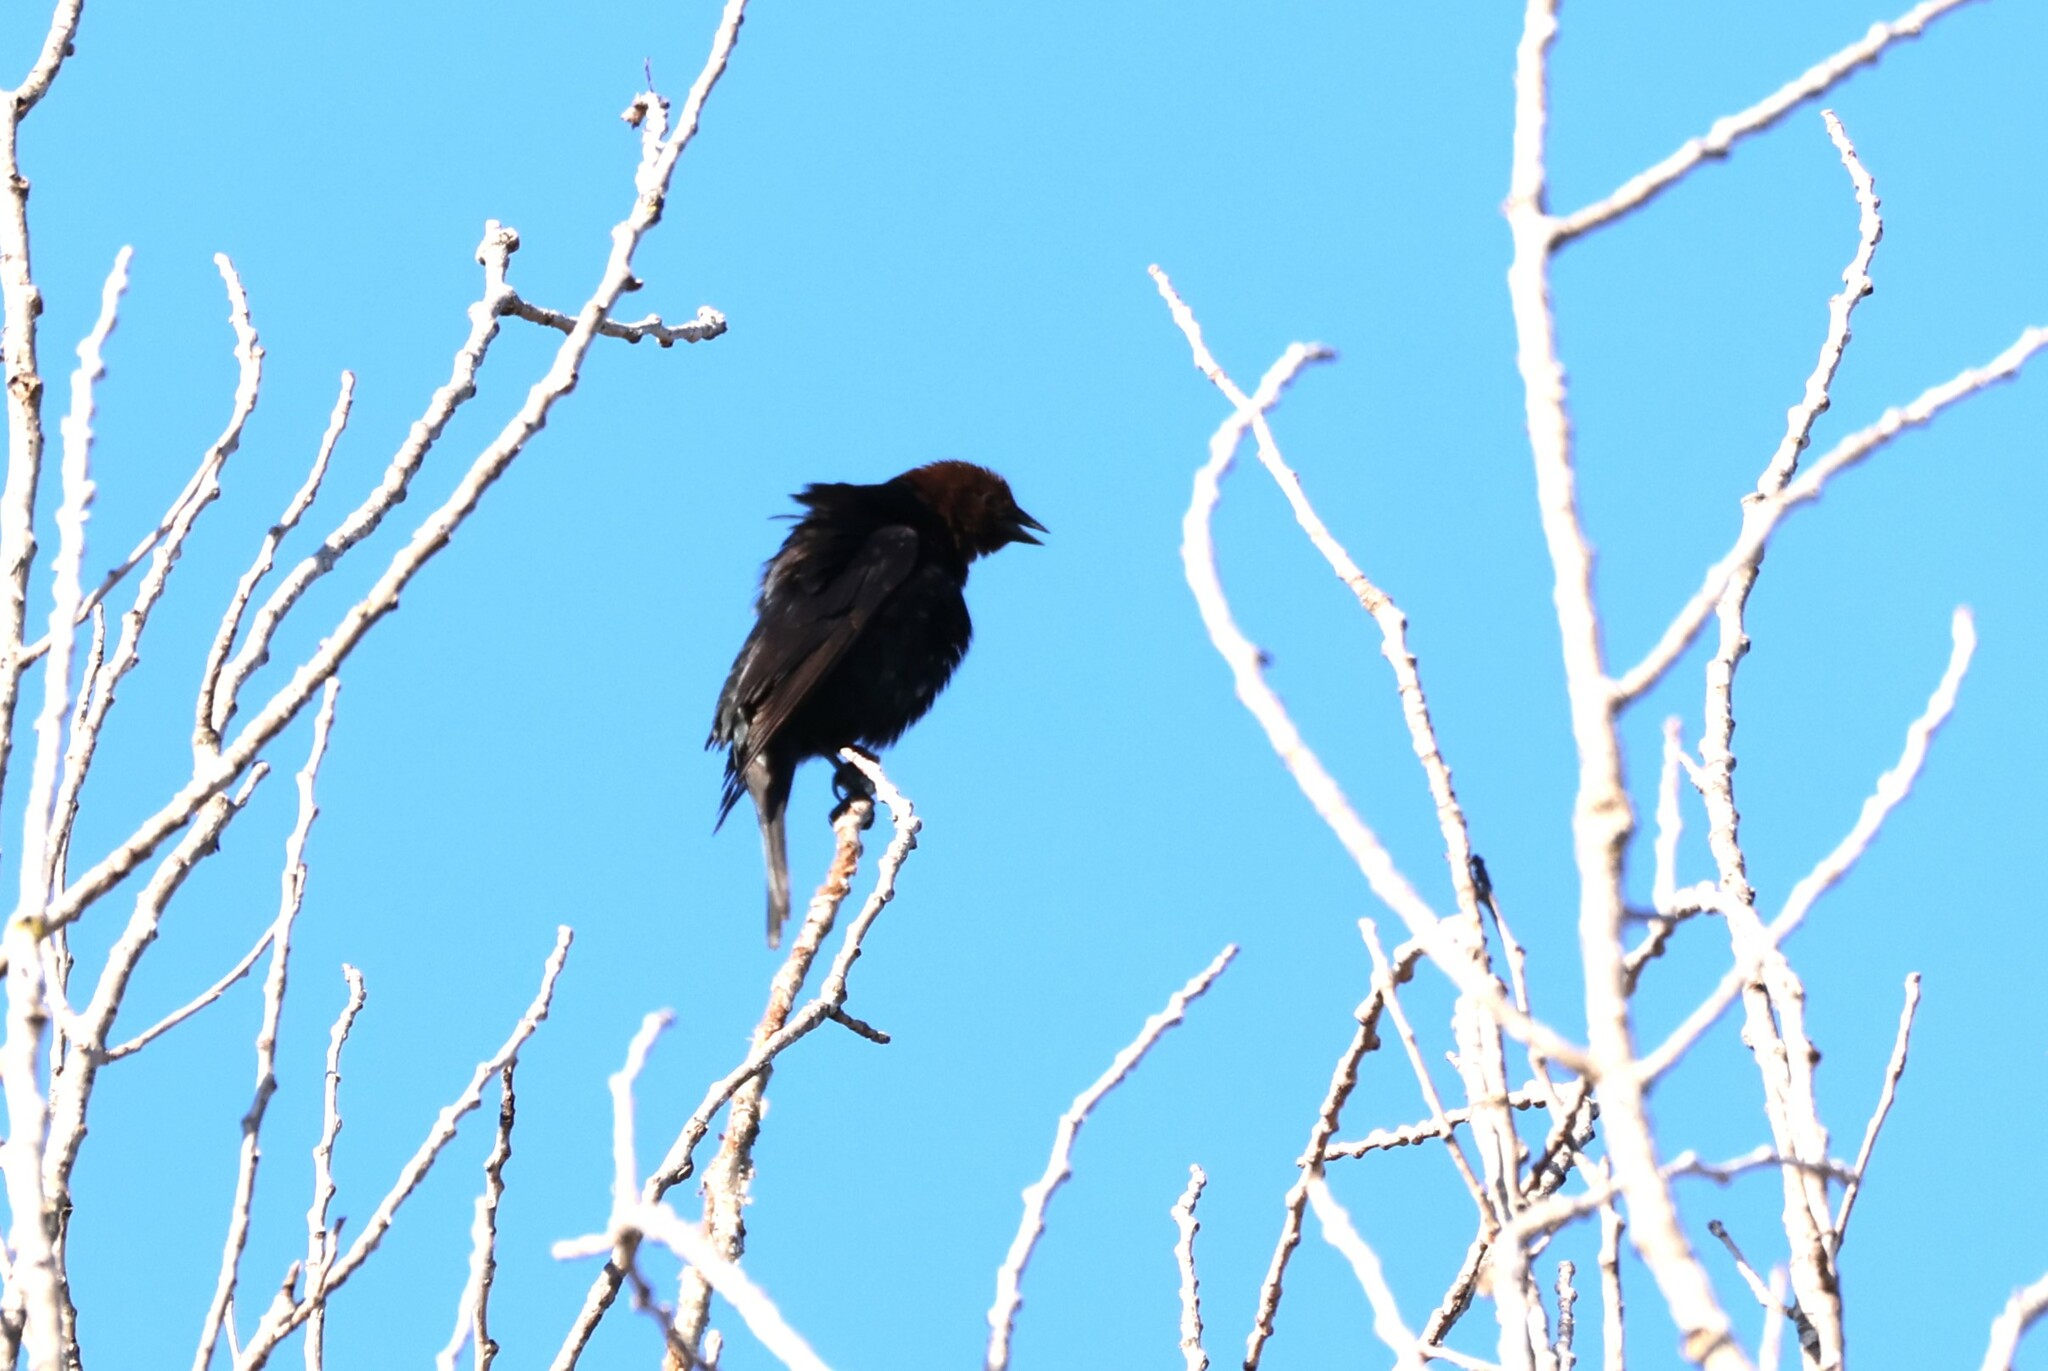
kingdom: Animalia
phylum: Chordata
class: Aves
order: Passeriformes
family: Icteridae
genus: Molothrus
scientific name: Molothrus ater
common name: Brown-headed cowbird
